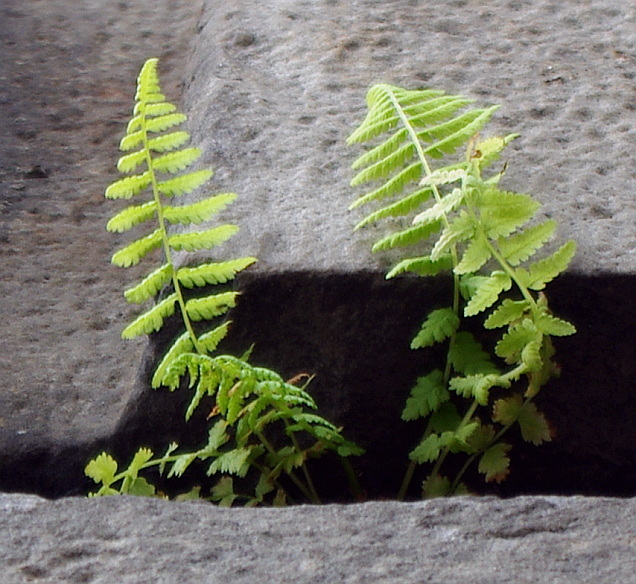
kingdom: Plantae
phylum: Tracheophyta
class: Polypodiopsida
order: Polypodiales
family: Athyriaceae
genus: Athyrium
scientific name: Athyrium filix-femina
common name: Lady fern
